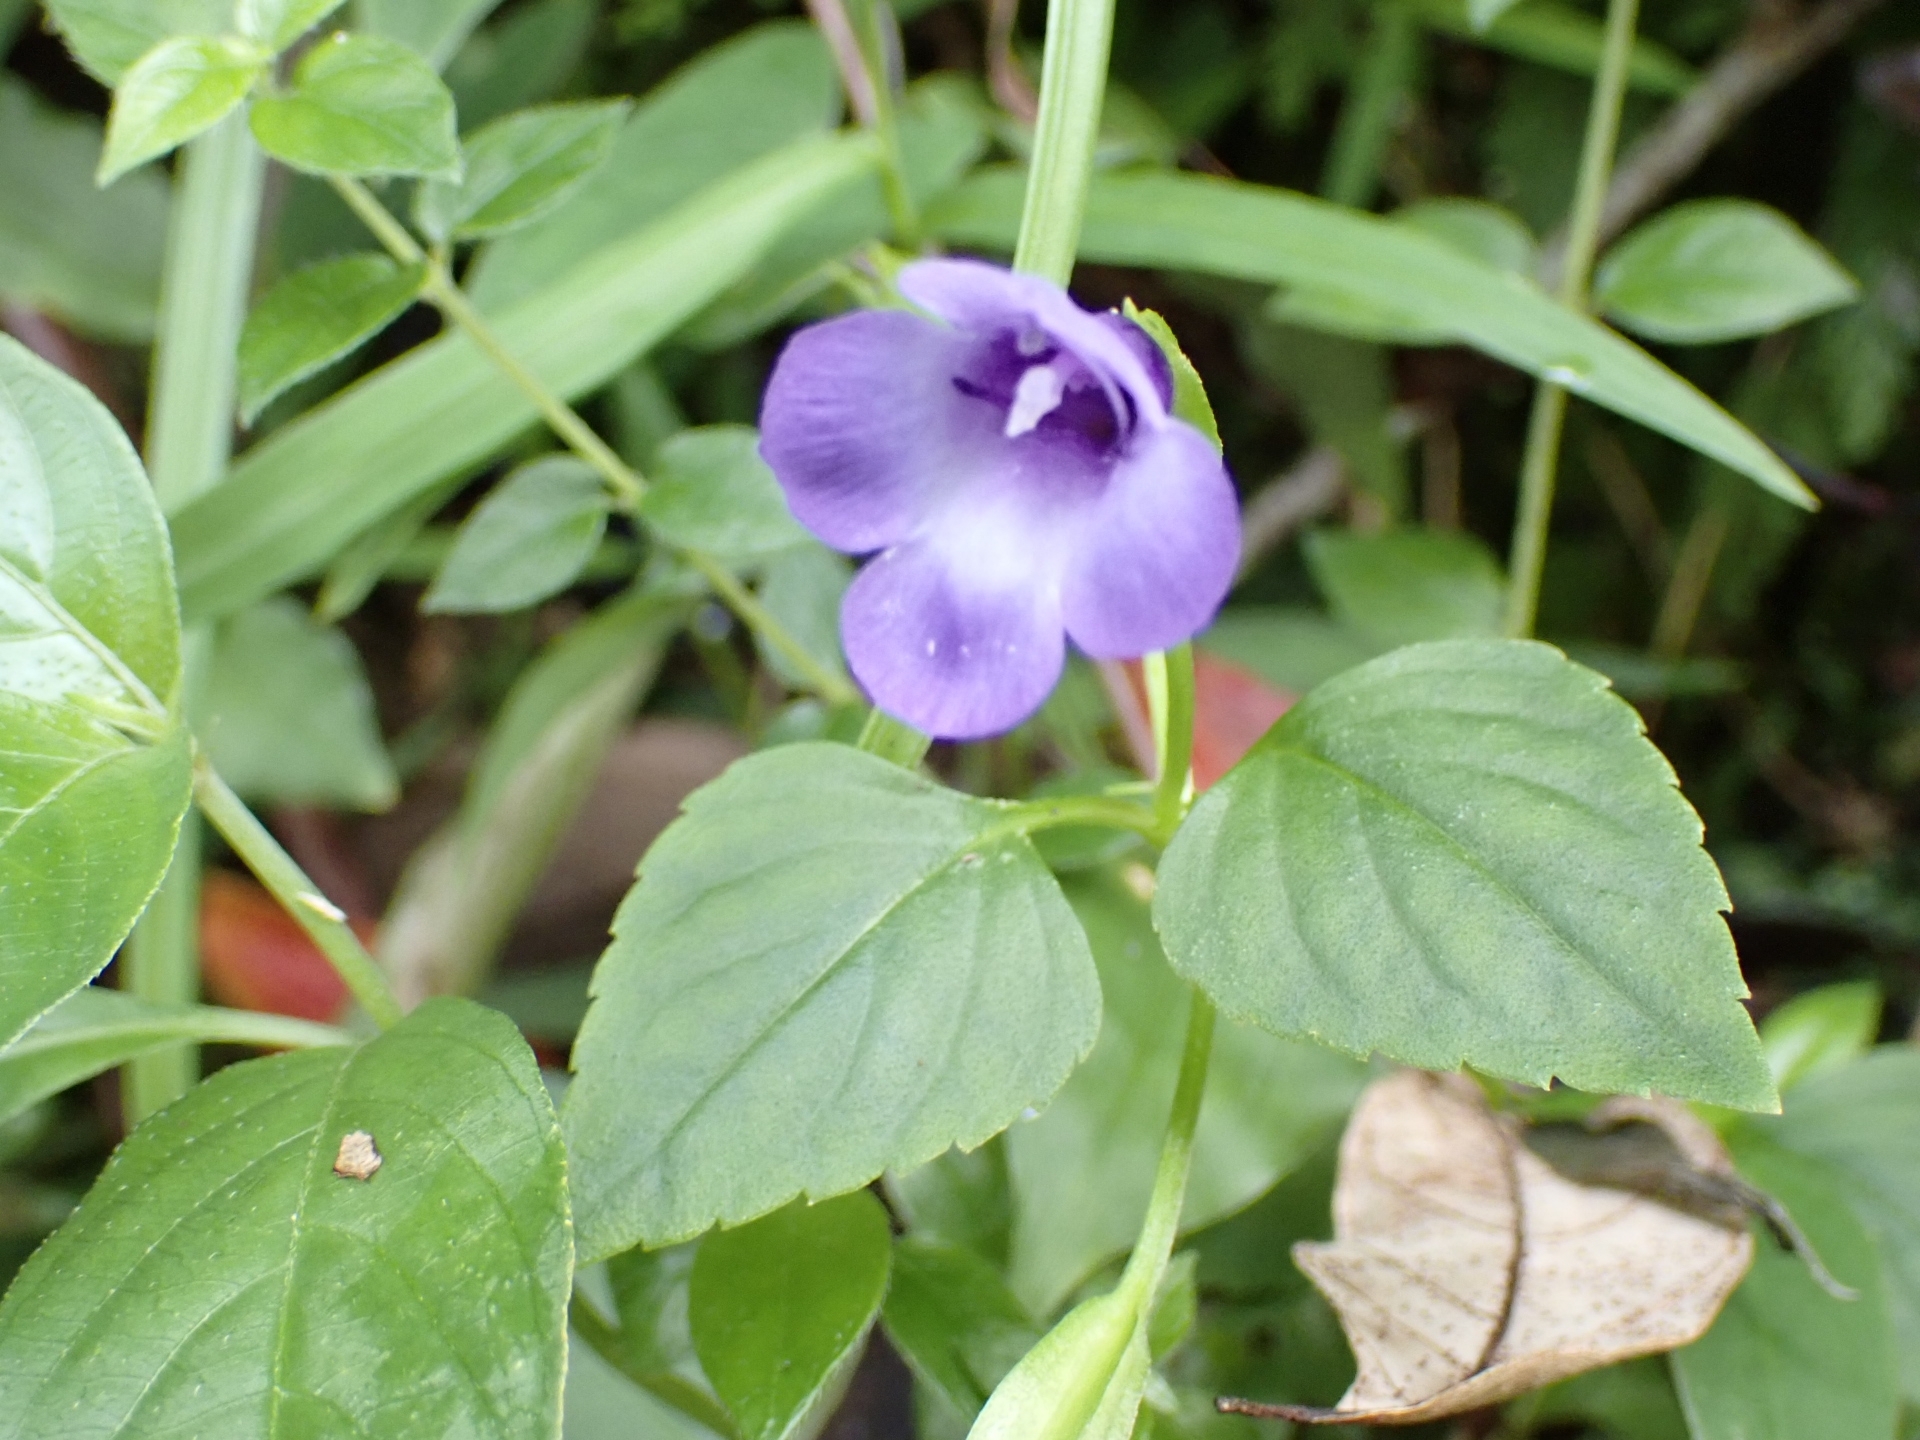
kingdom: Plantae
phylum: Tracheophyta
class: Magnoliopsida
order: Lamiales
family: Linderniaceae
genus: Torenia
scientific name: Torenia concolor
